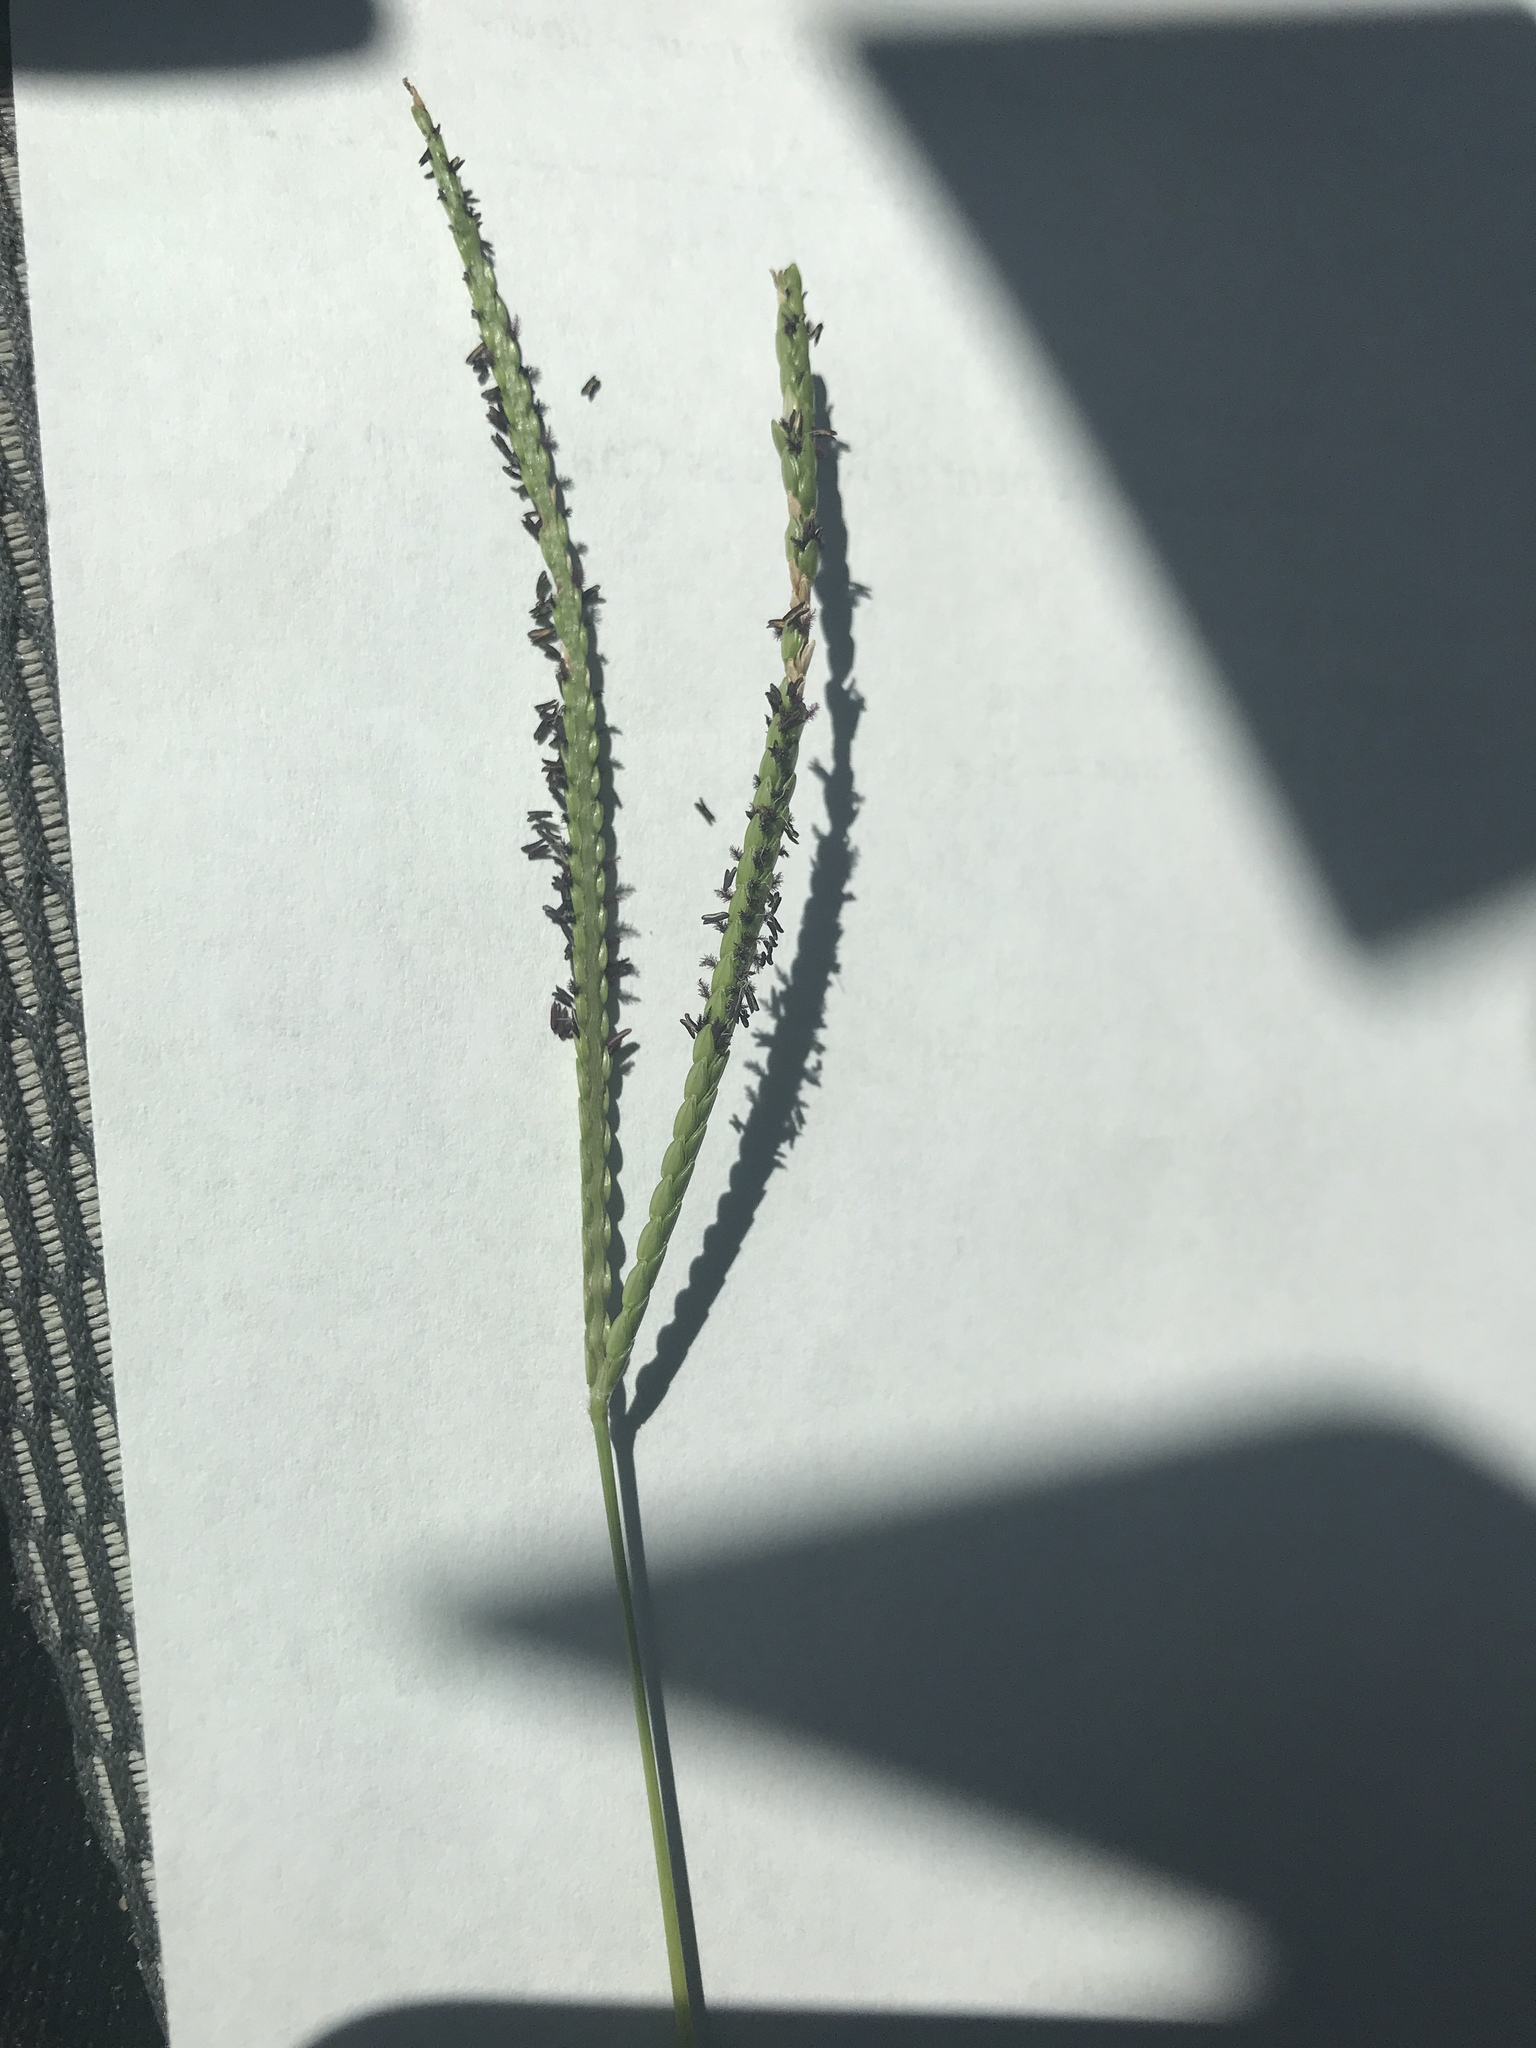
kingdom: Plantae
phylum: Tracheophyta
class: Liliopsida
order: Poales
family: Poaceae
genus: Paspalum
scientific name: Paspalum notatum
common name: Bahiagrass
